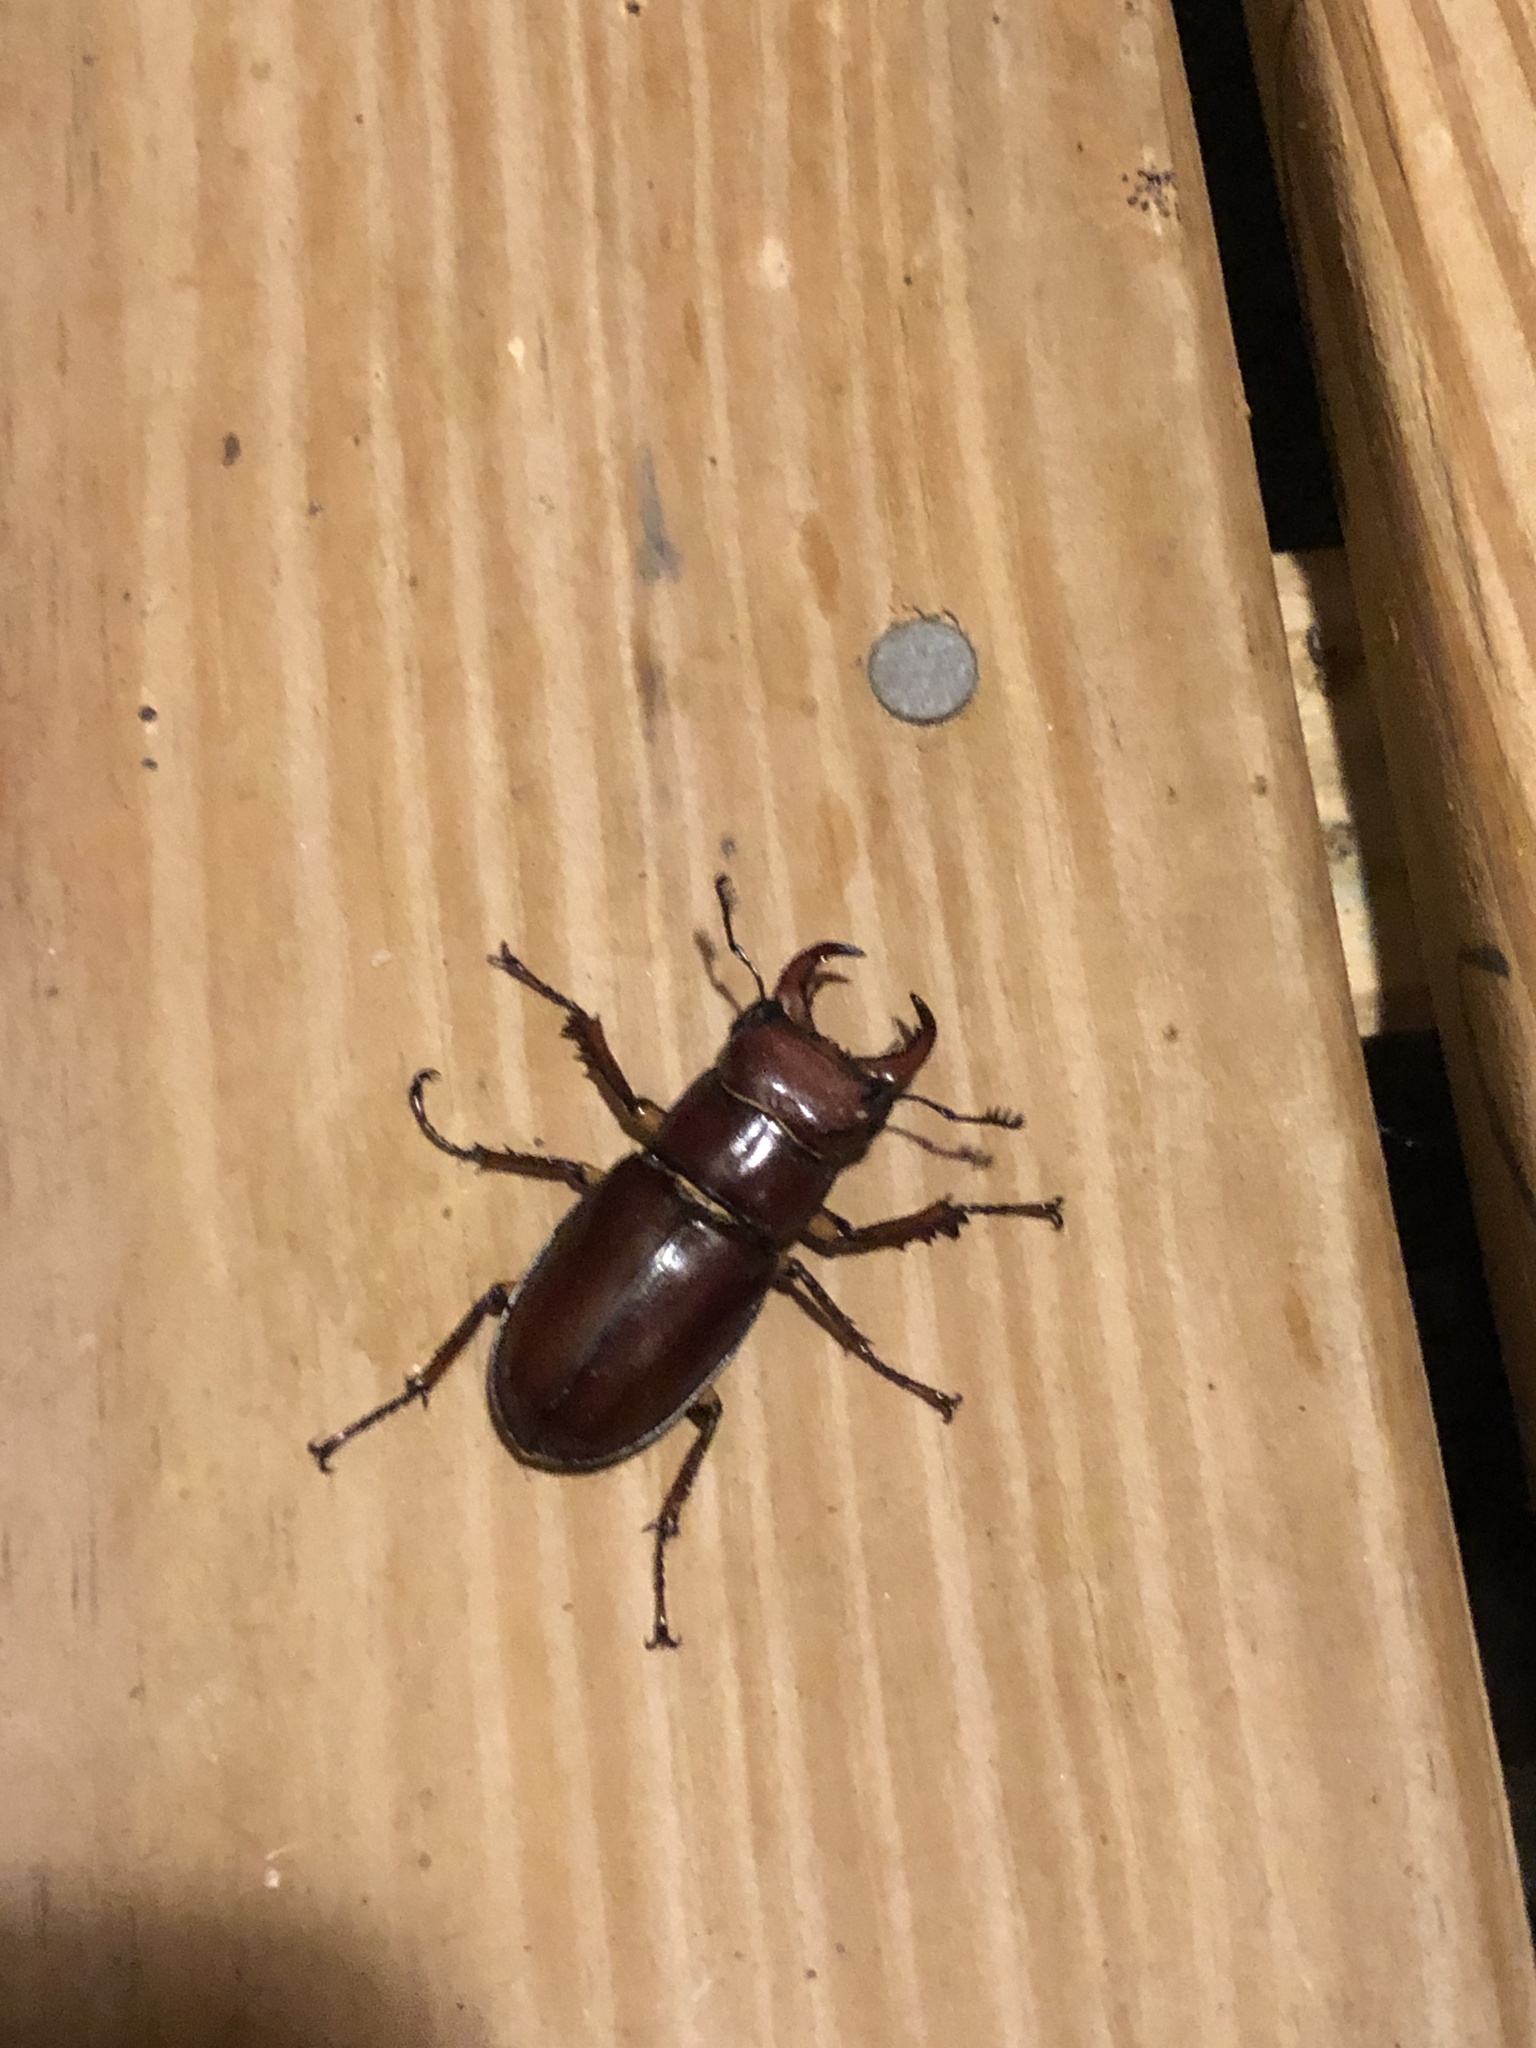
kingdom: Animalia
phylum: Arthropoda
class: Insecta
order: Coleoptera
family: Lucanidae
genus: Lucanus
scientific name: Lucanus capreolus
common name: Stag beetle
